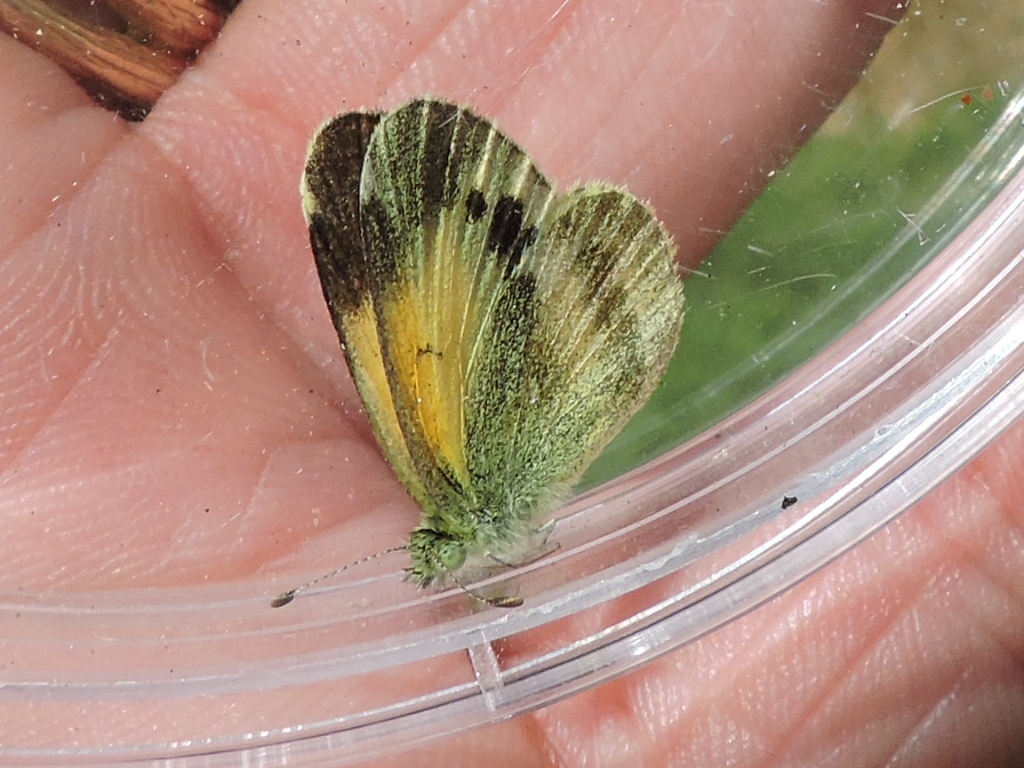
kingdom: Animalia
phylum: Arthropoda
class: Insecta
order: Lepidoptera
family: Pieridae
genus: Nathalis
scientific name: Nathalis iole
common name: Dainty sulphur
